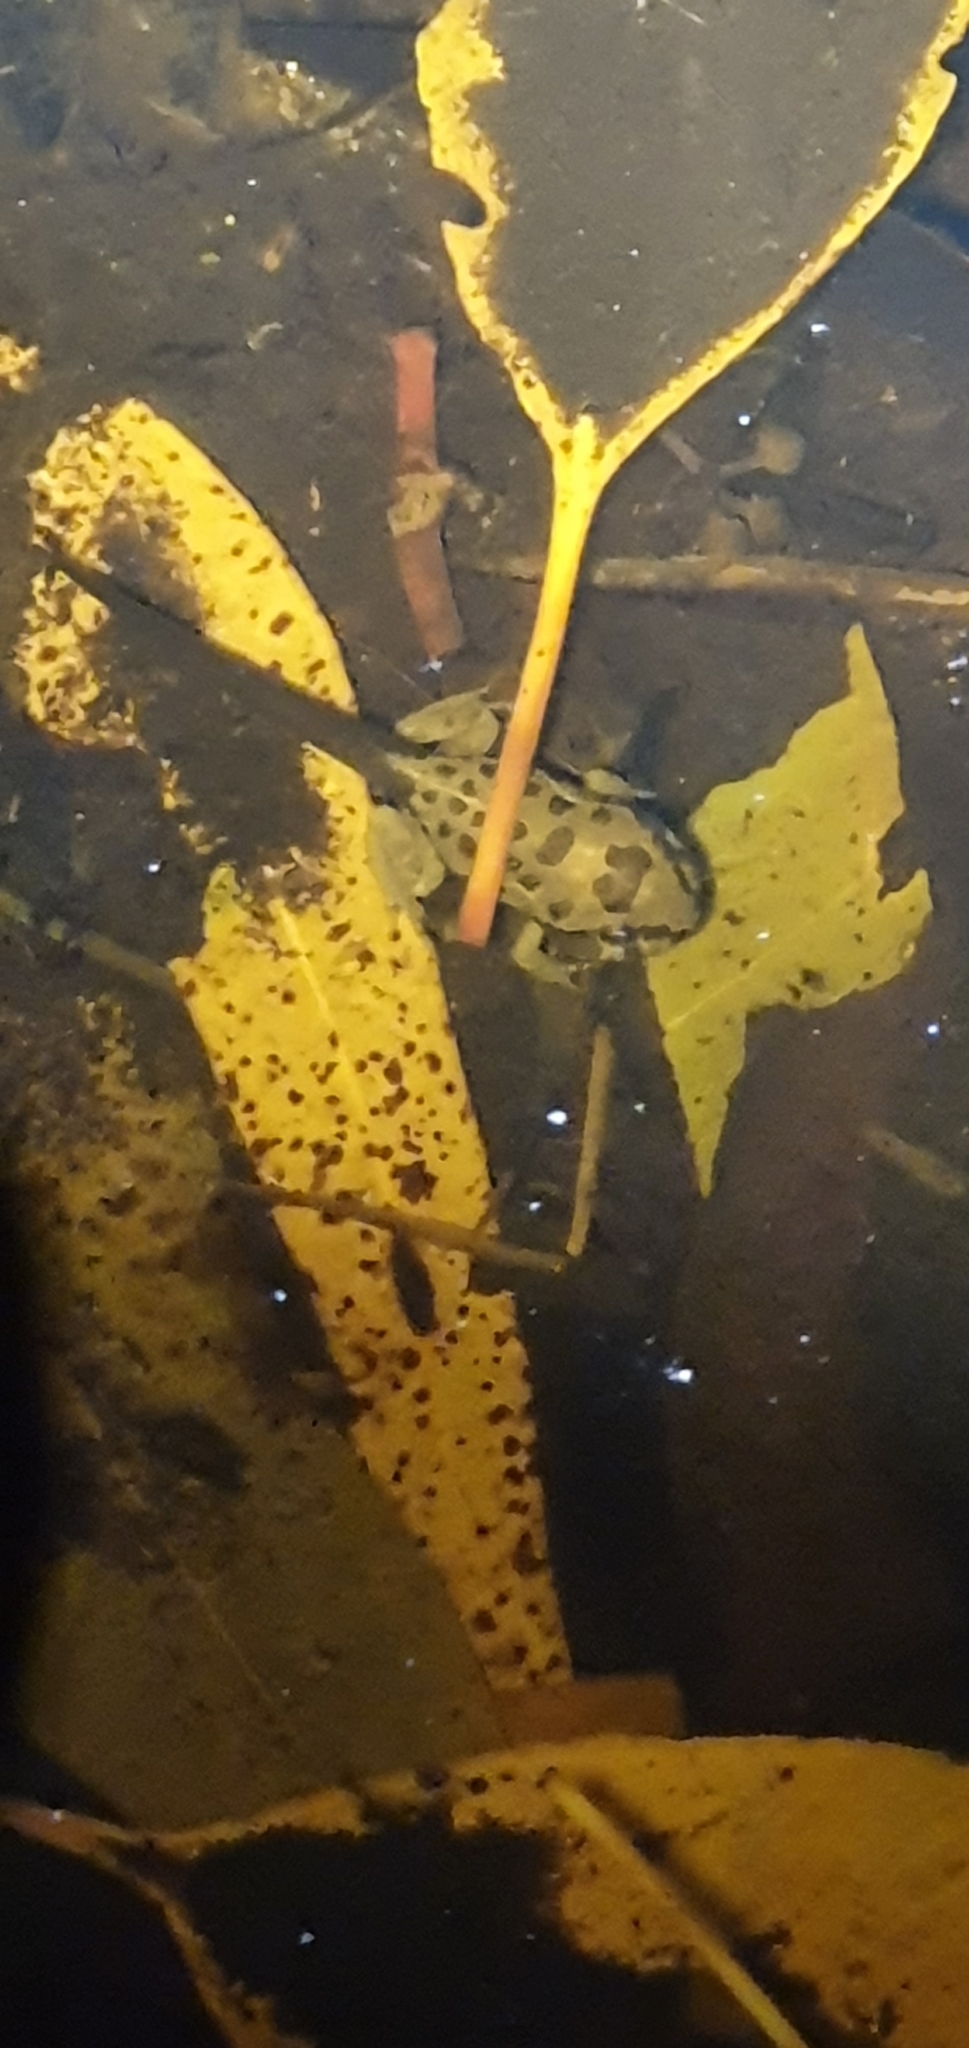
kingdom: Animalia
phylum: Chordata
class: Amphibia
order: Anura
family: Limnodynastidae
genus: Limnodynastes
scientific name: Limnodynastes salmini
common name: Salmon-striped frog
